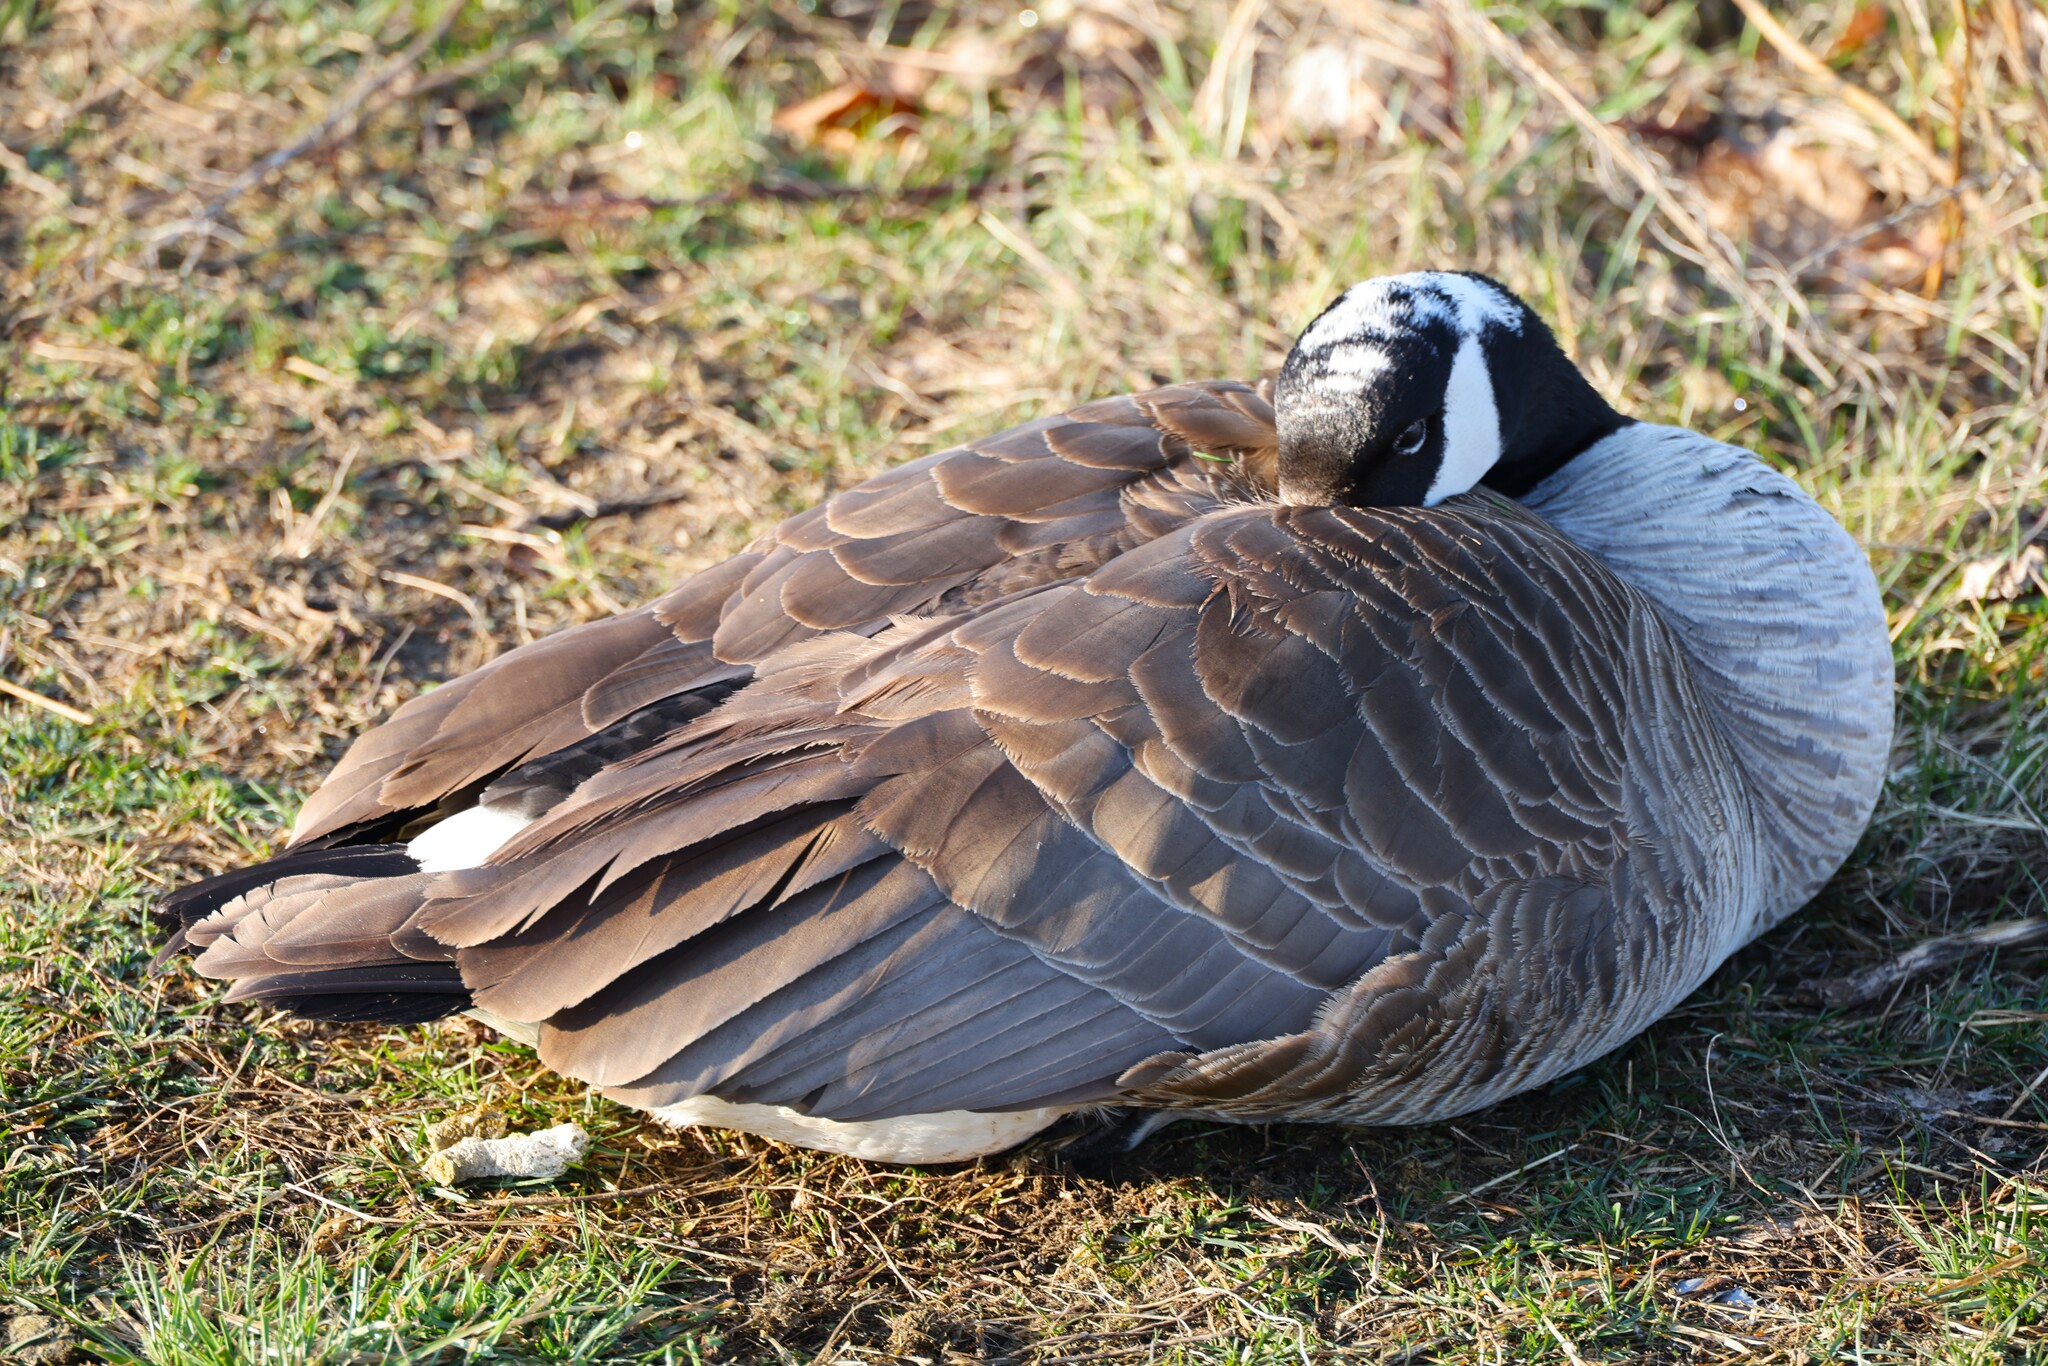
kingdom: Animalia
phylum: Chordata
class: Aves
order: Anseriformes
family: Anatidae
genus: Branta
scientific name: Branta canadensis
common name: Canada goose
